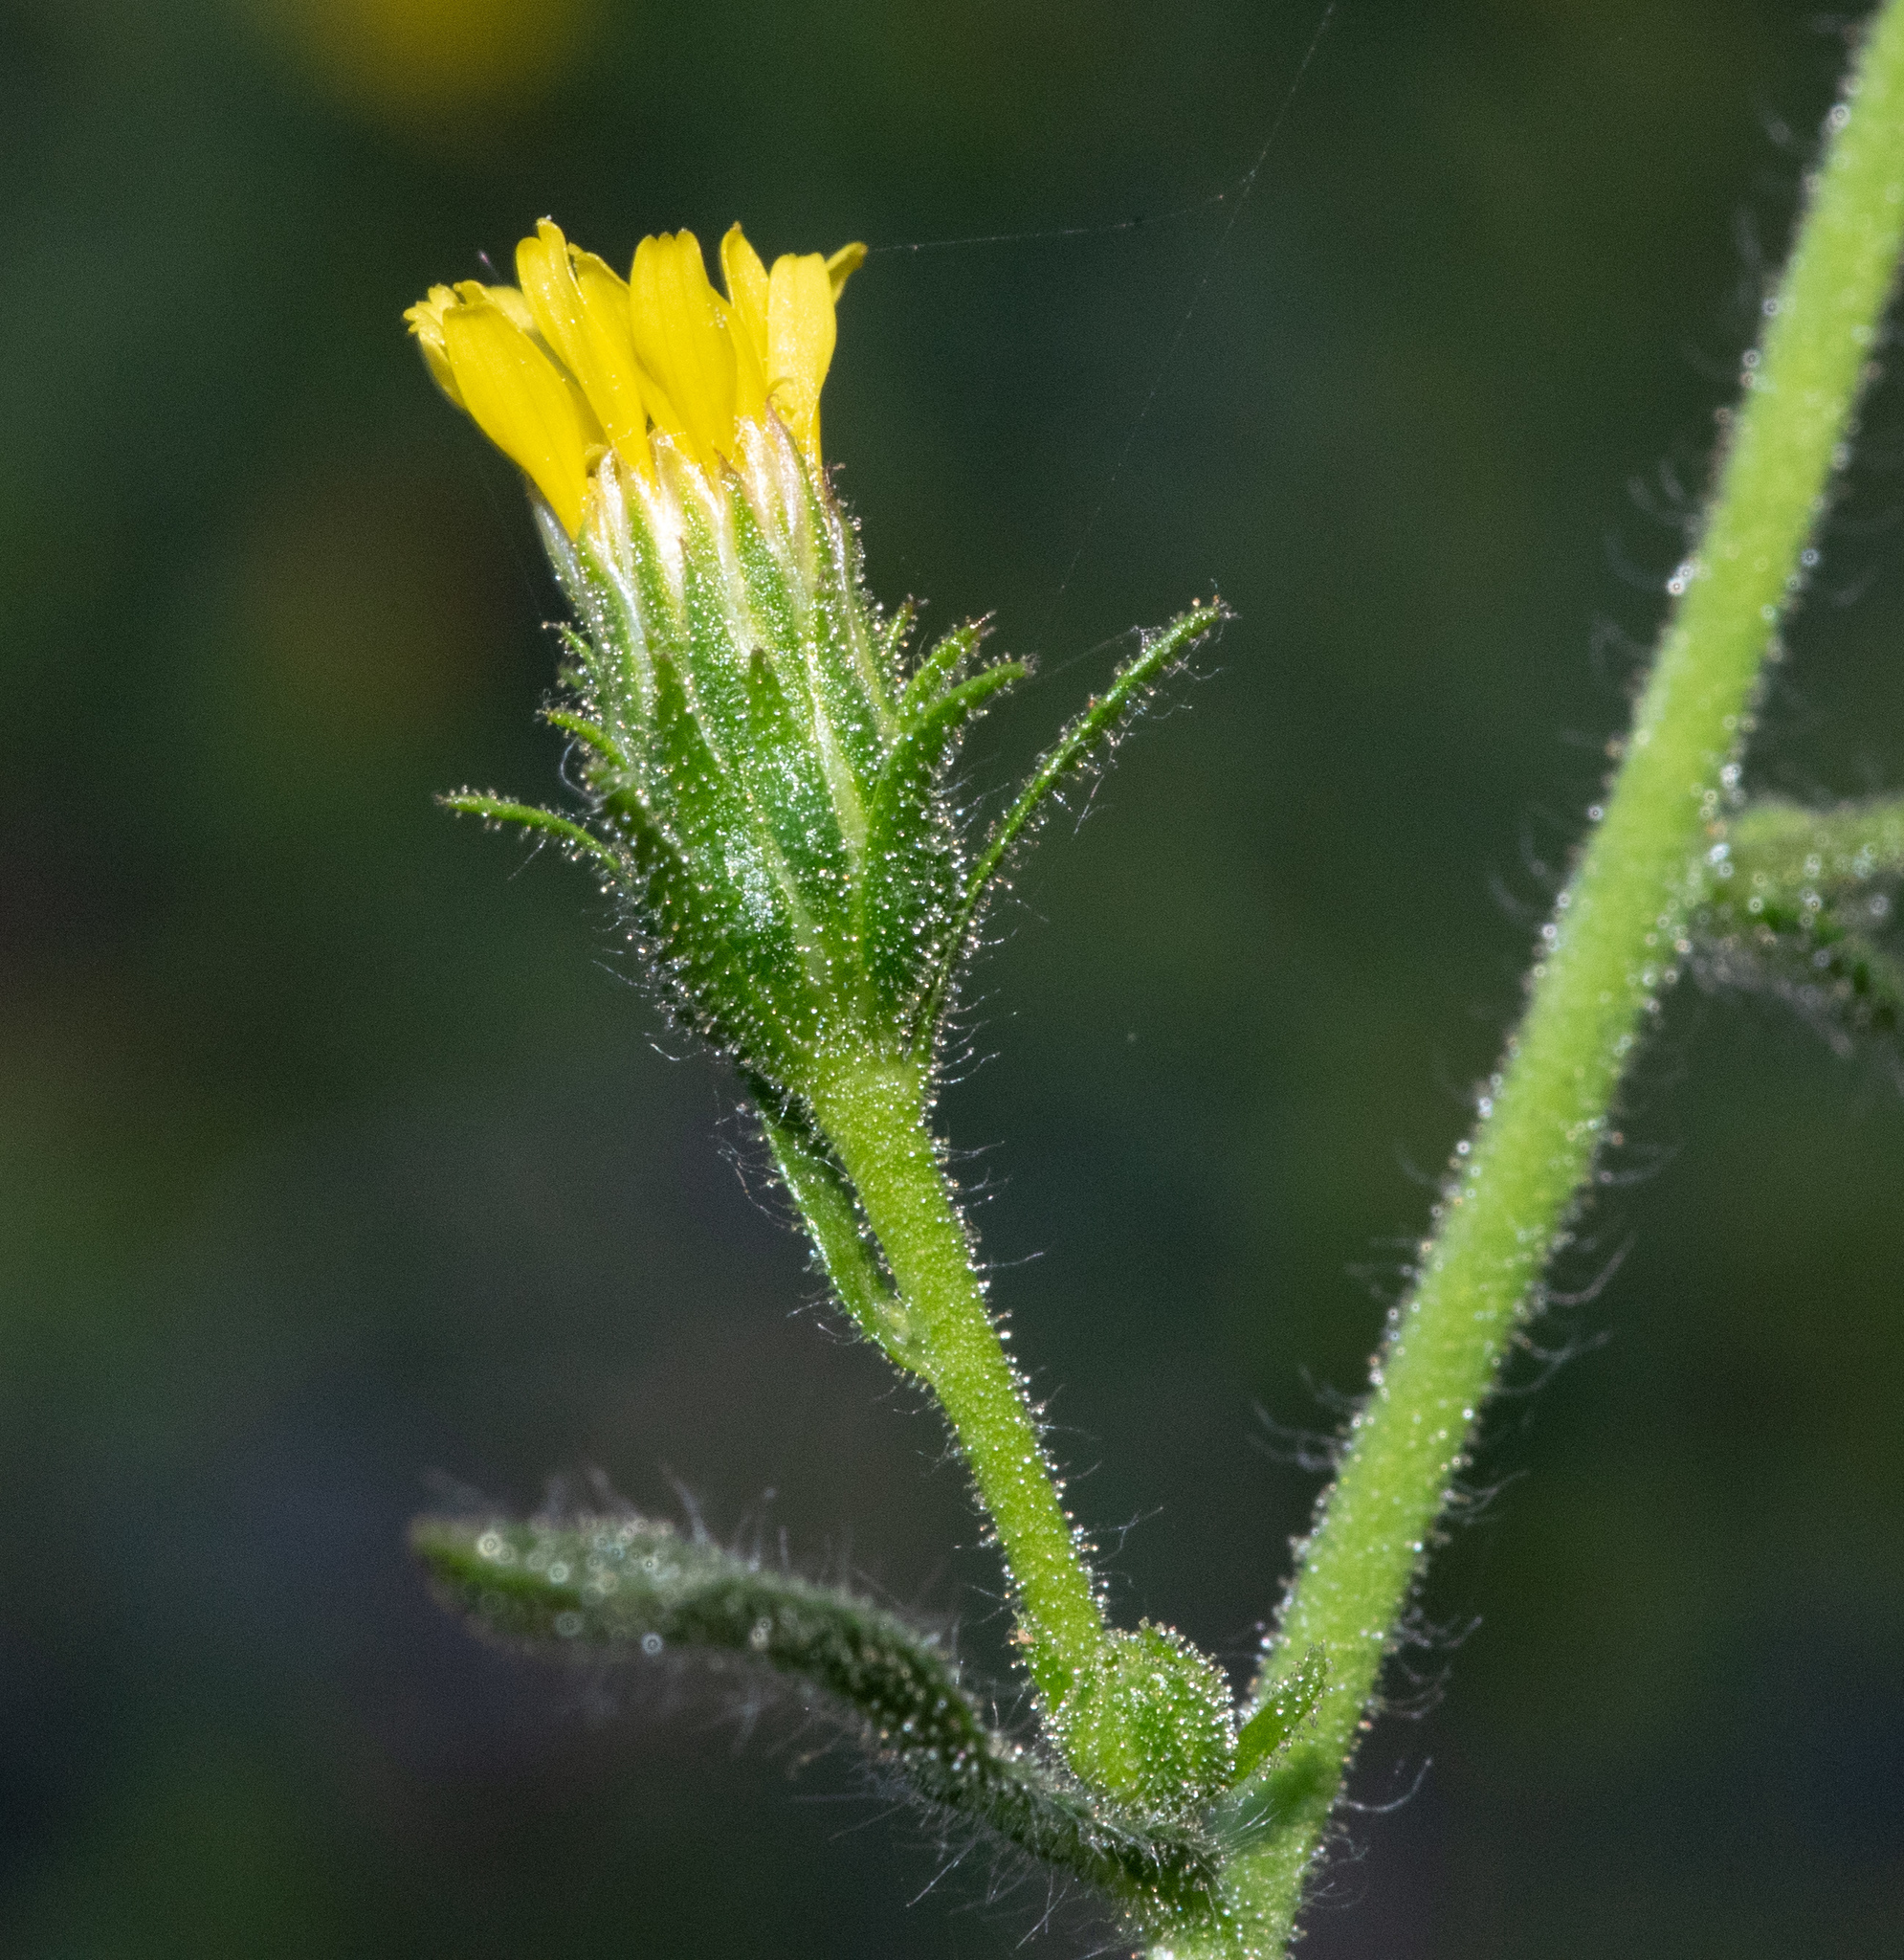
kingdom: Plantae
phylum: Tracheophyta
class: Magnoliopsida
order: Asterales
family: Asteraceae
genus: Dittrichia
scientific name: Dittrichia graveolens
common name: Stinking fleabane
